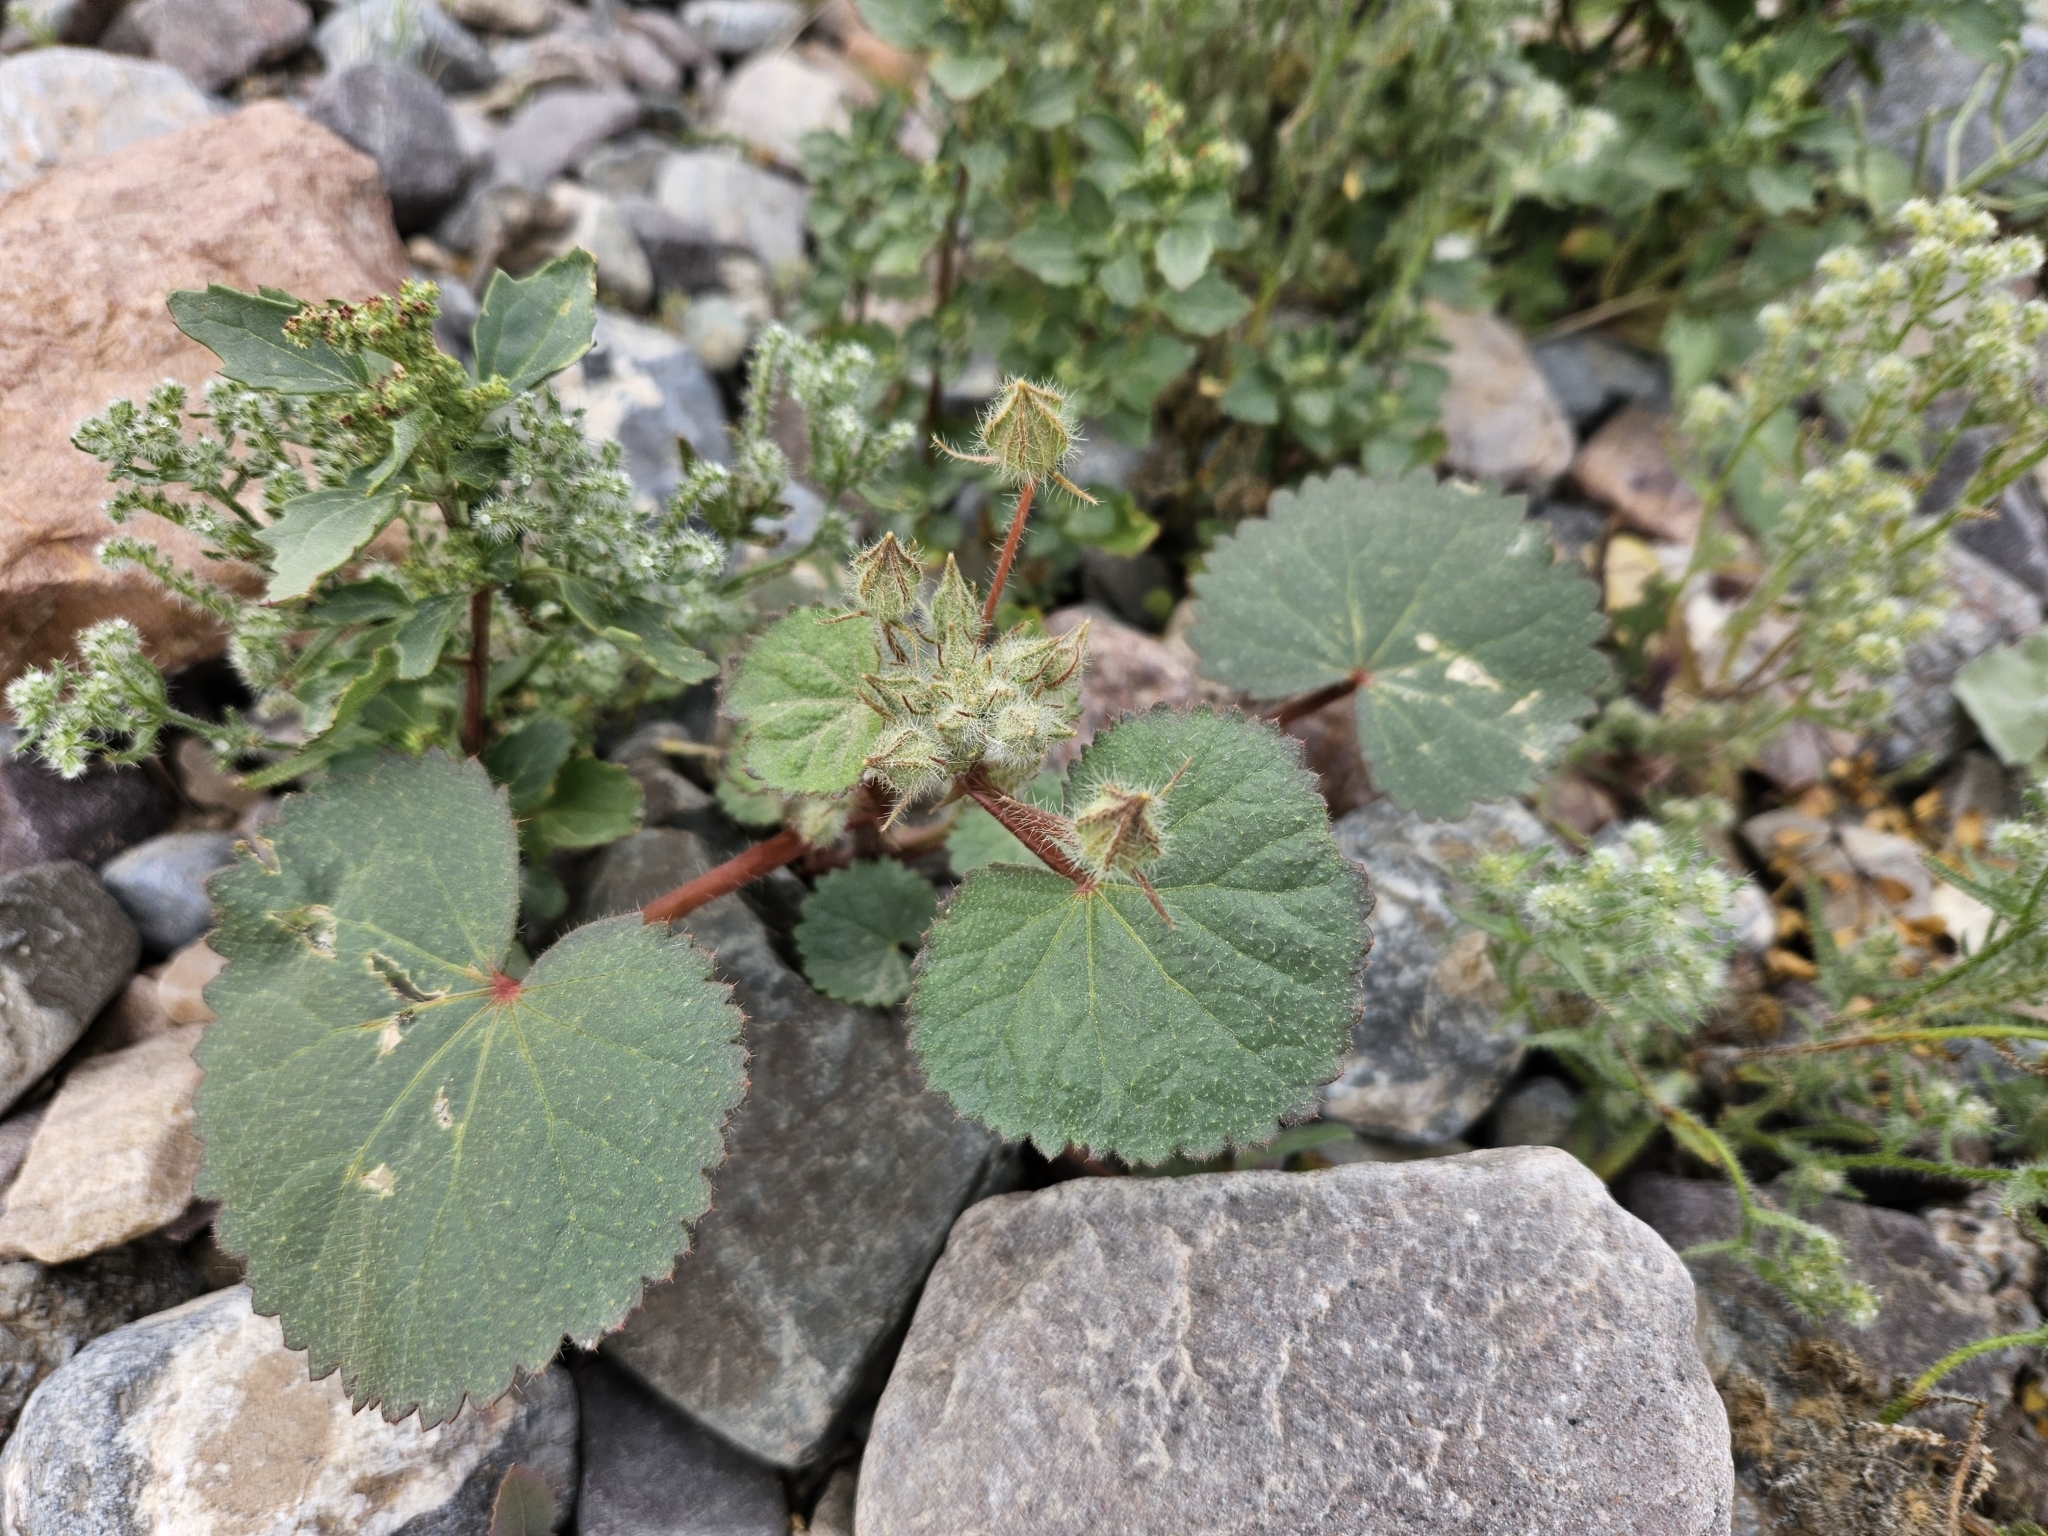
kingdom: Plantae
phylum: Tracheophyta
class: Magnoliopsida
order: Malvales
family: Malvaceae
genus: Eremalche
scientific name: Eremalche rotundifolia
